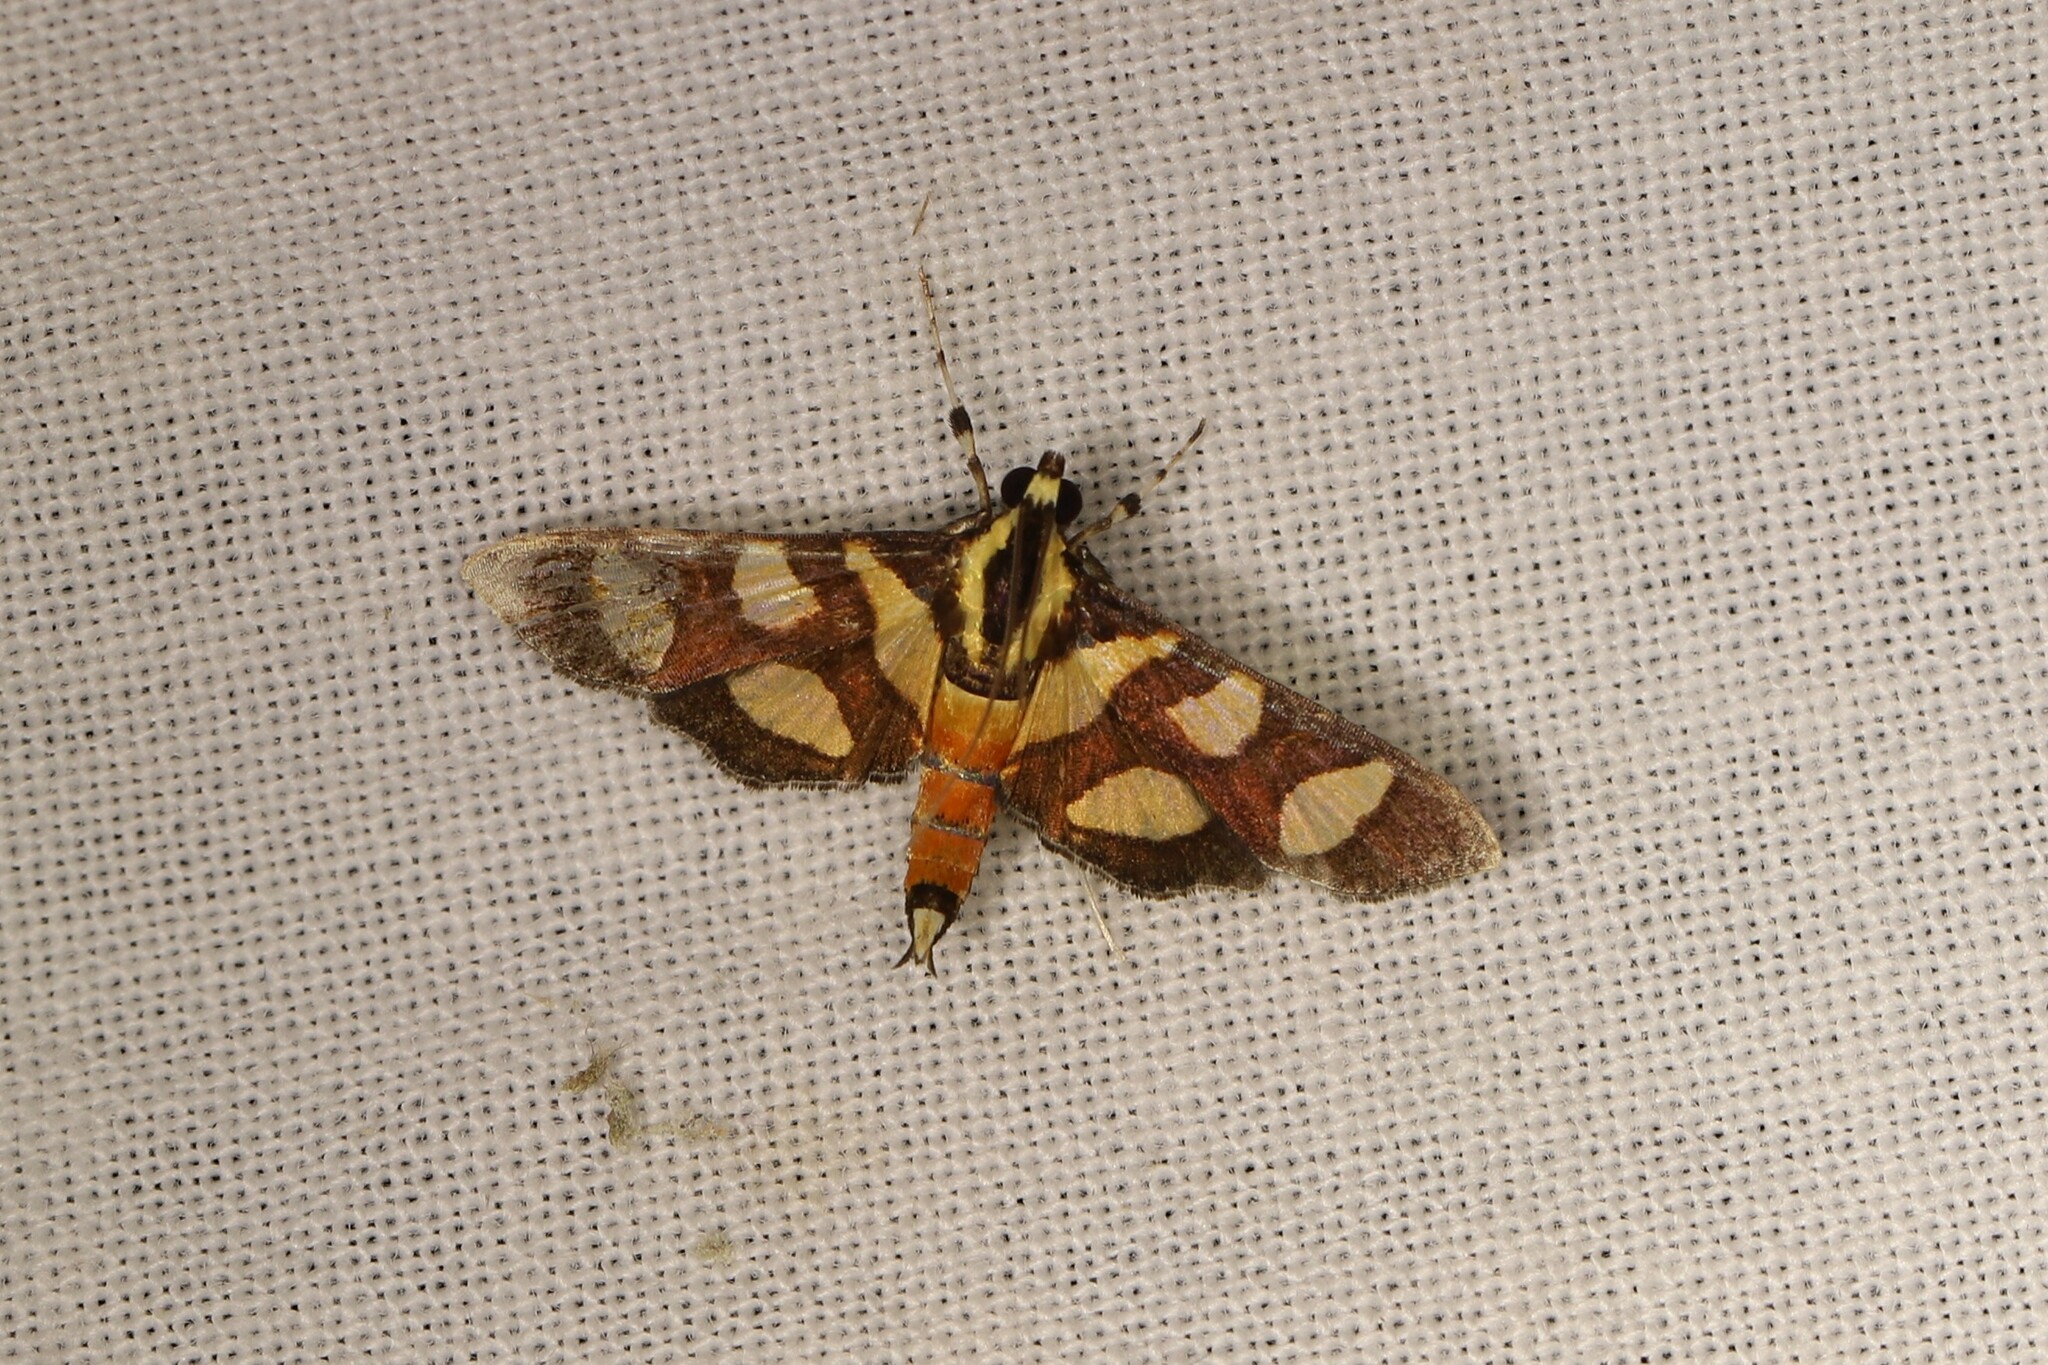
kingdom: Animalia
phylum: Arthropoda
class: Insecta
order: Lepidoptera
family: Crambidae
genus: Syngamia
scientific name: Syngamia florella
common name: Orange-spotted flower moth
